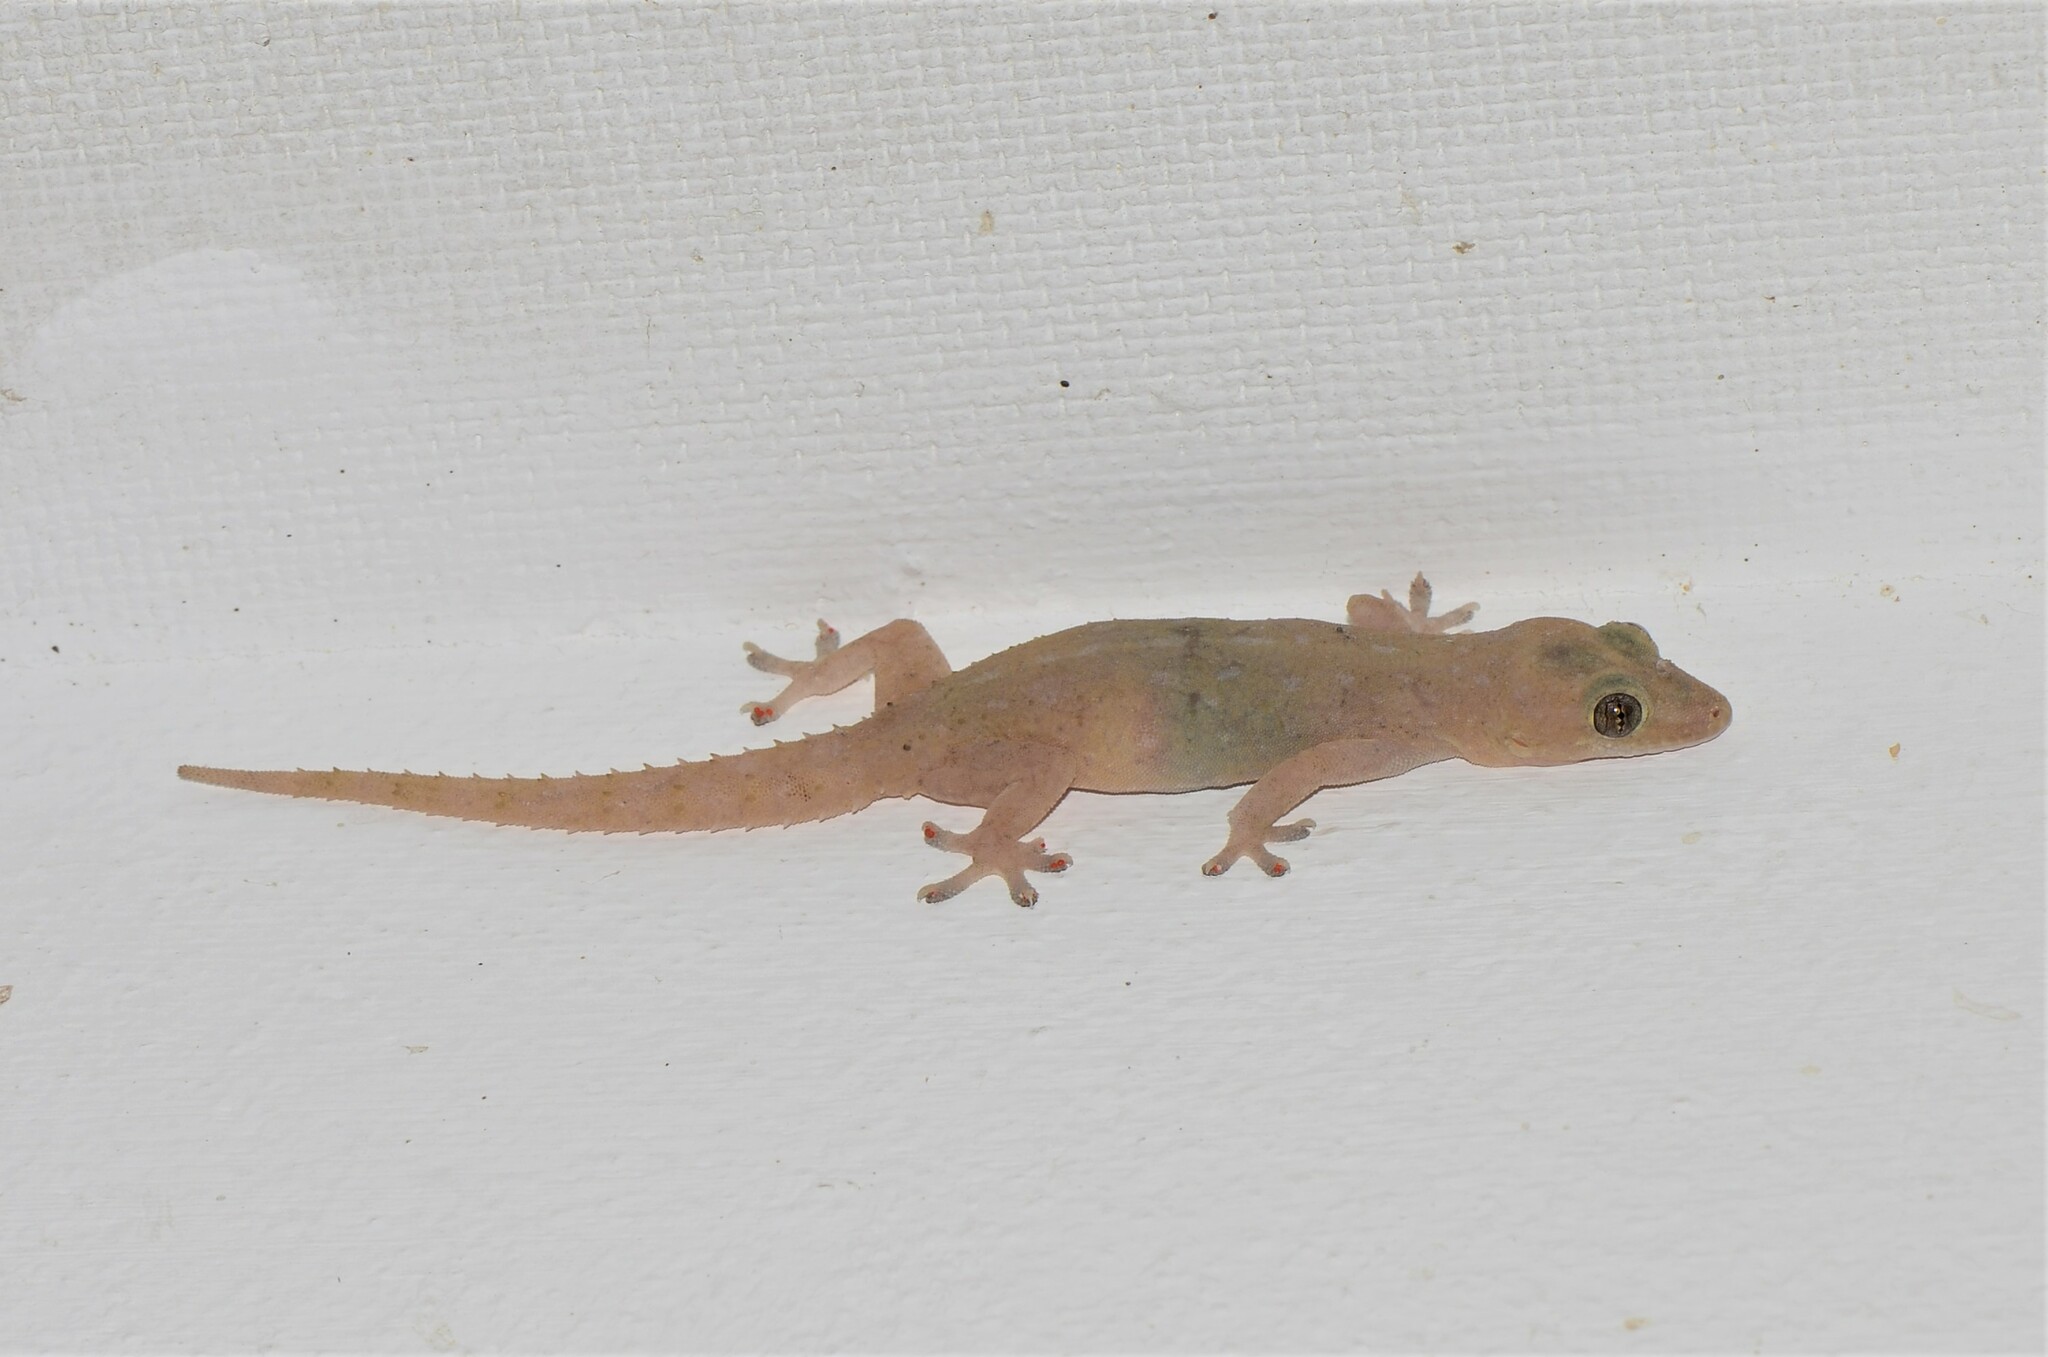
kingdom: Animalia
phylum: Chordata
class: Squamata
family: Gekkonidae
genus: Hemidactylus
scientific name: Hemidactylus frenatus
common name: Common house gecko
